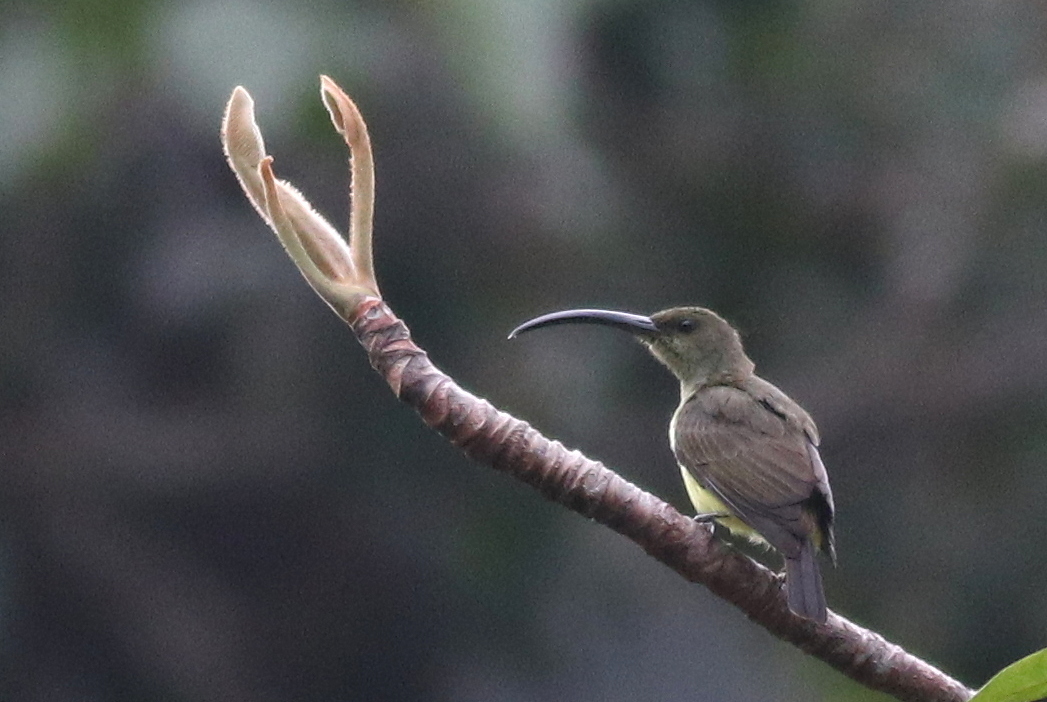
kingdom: Animalia
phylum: Chordata
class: Aves
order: Passeriformes
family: Nectariniidae
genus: Arachnothera
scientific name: Arachnothera robusta
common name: Long-billed spiderhunter
